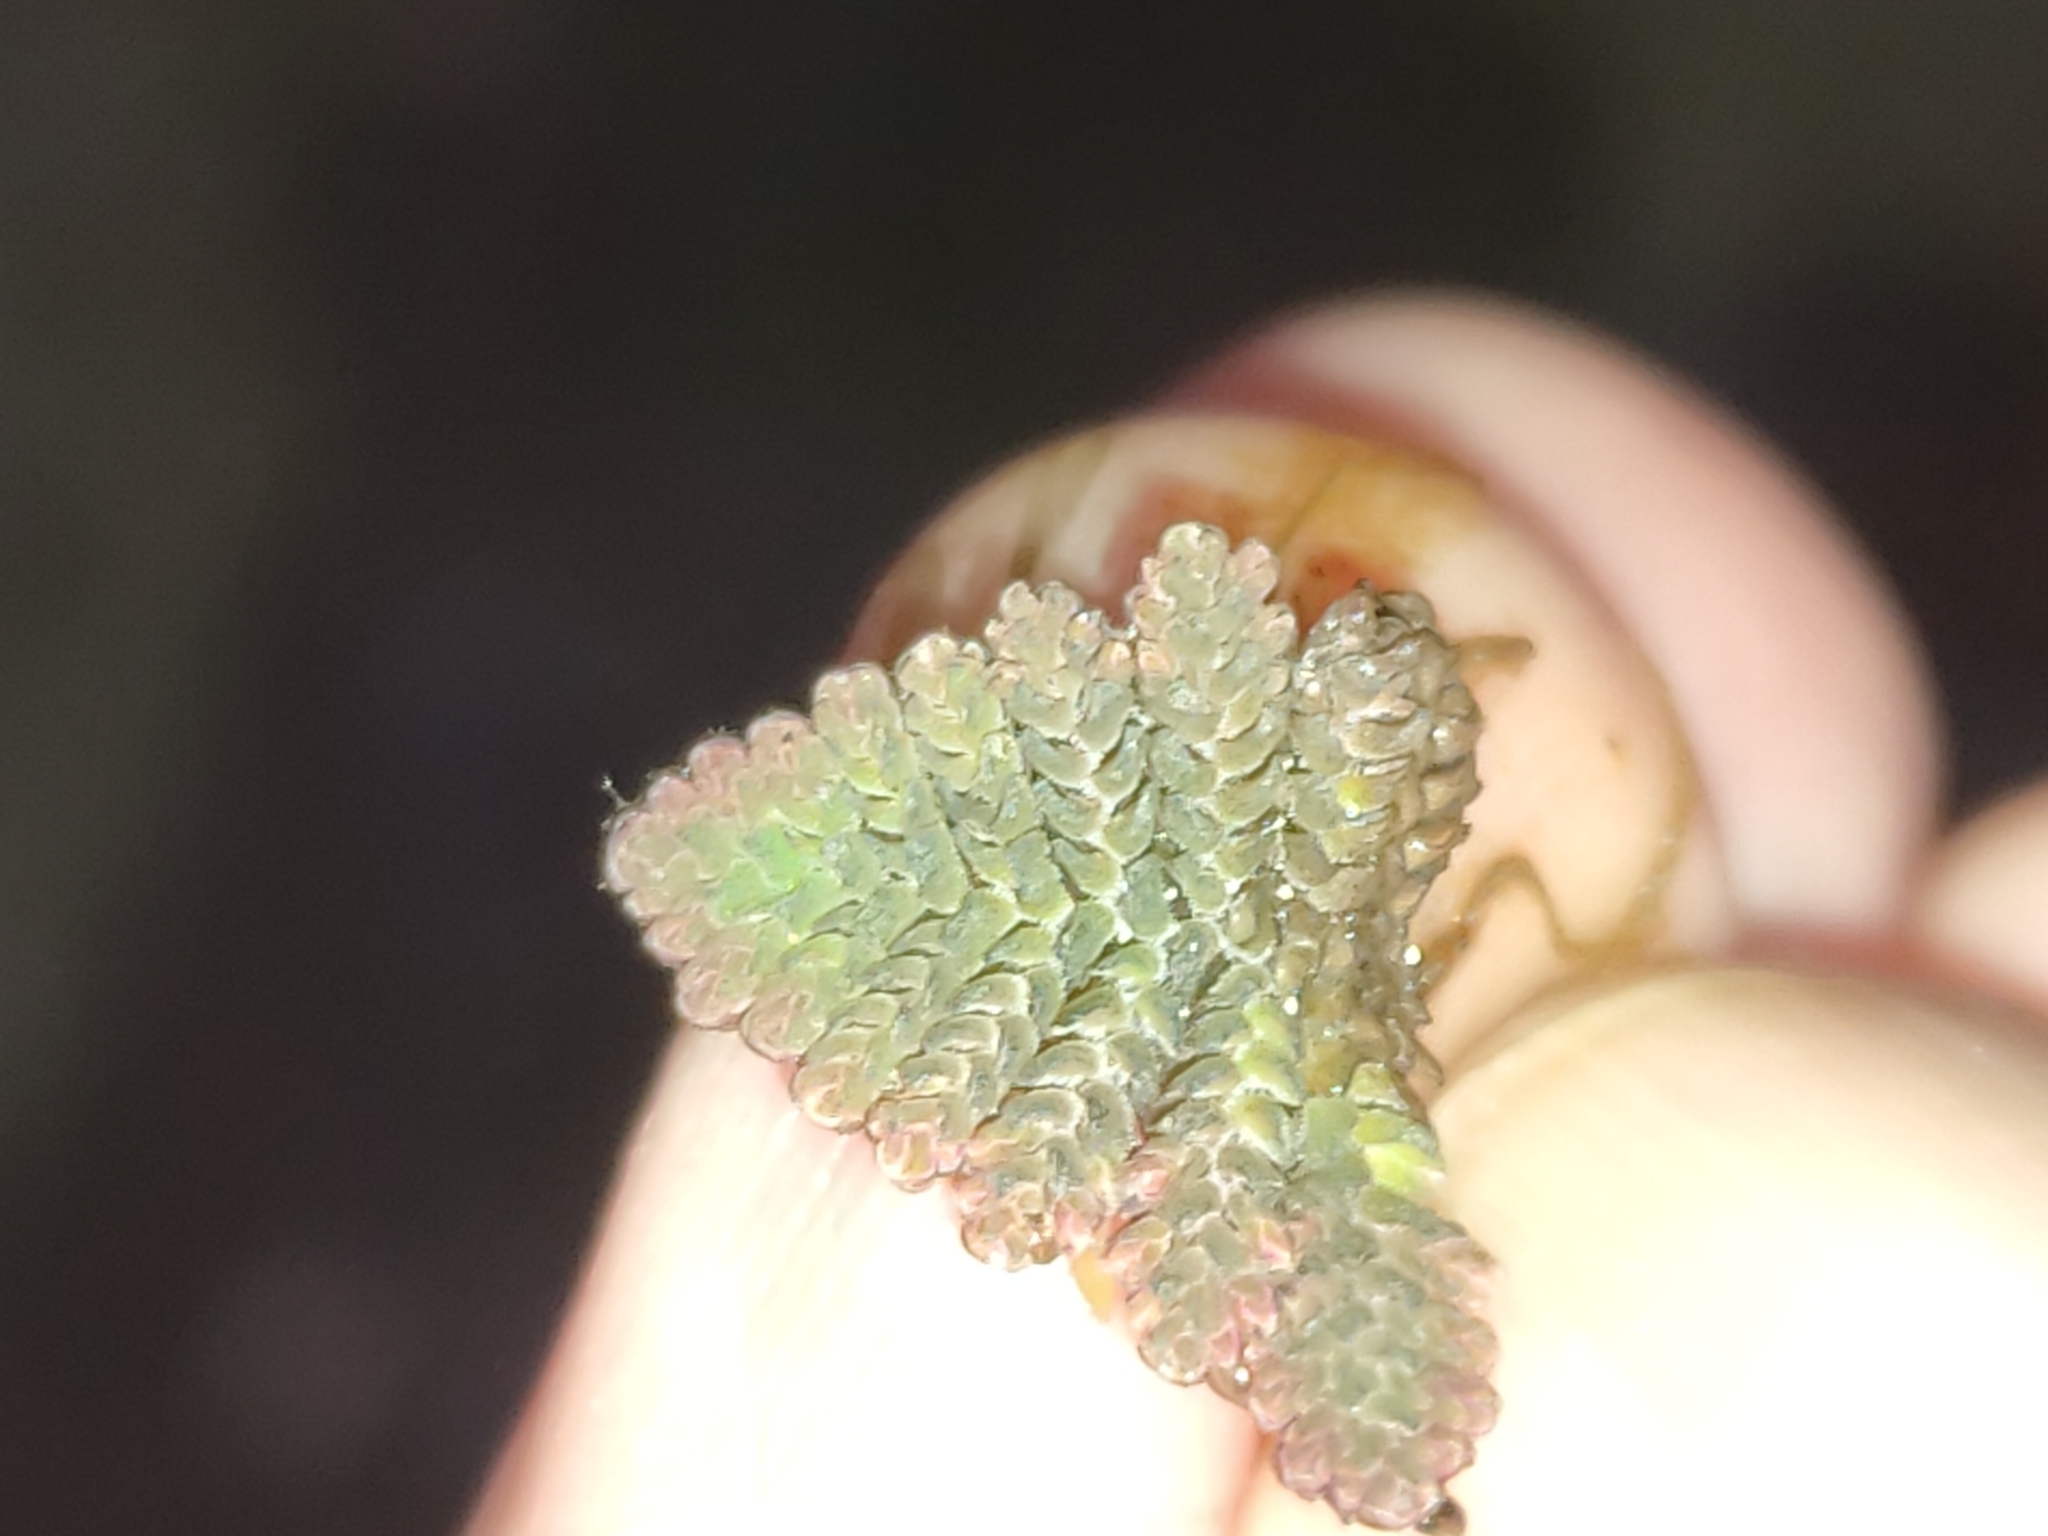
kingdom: Plantae
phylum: Tracheophyta
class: Polypodiopsida
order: Salviniales
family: Salviniaceae
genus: Azolla
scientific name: Azolla pinnata
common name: Ferny azolla
